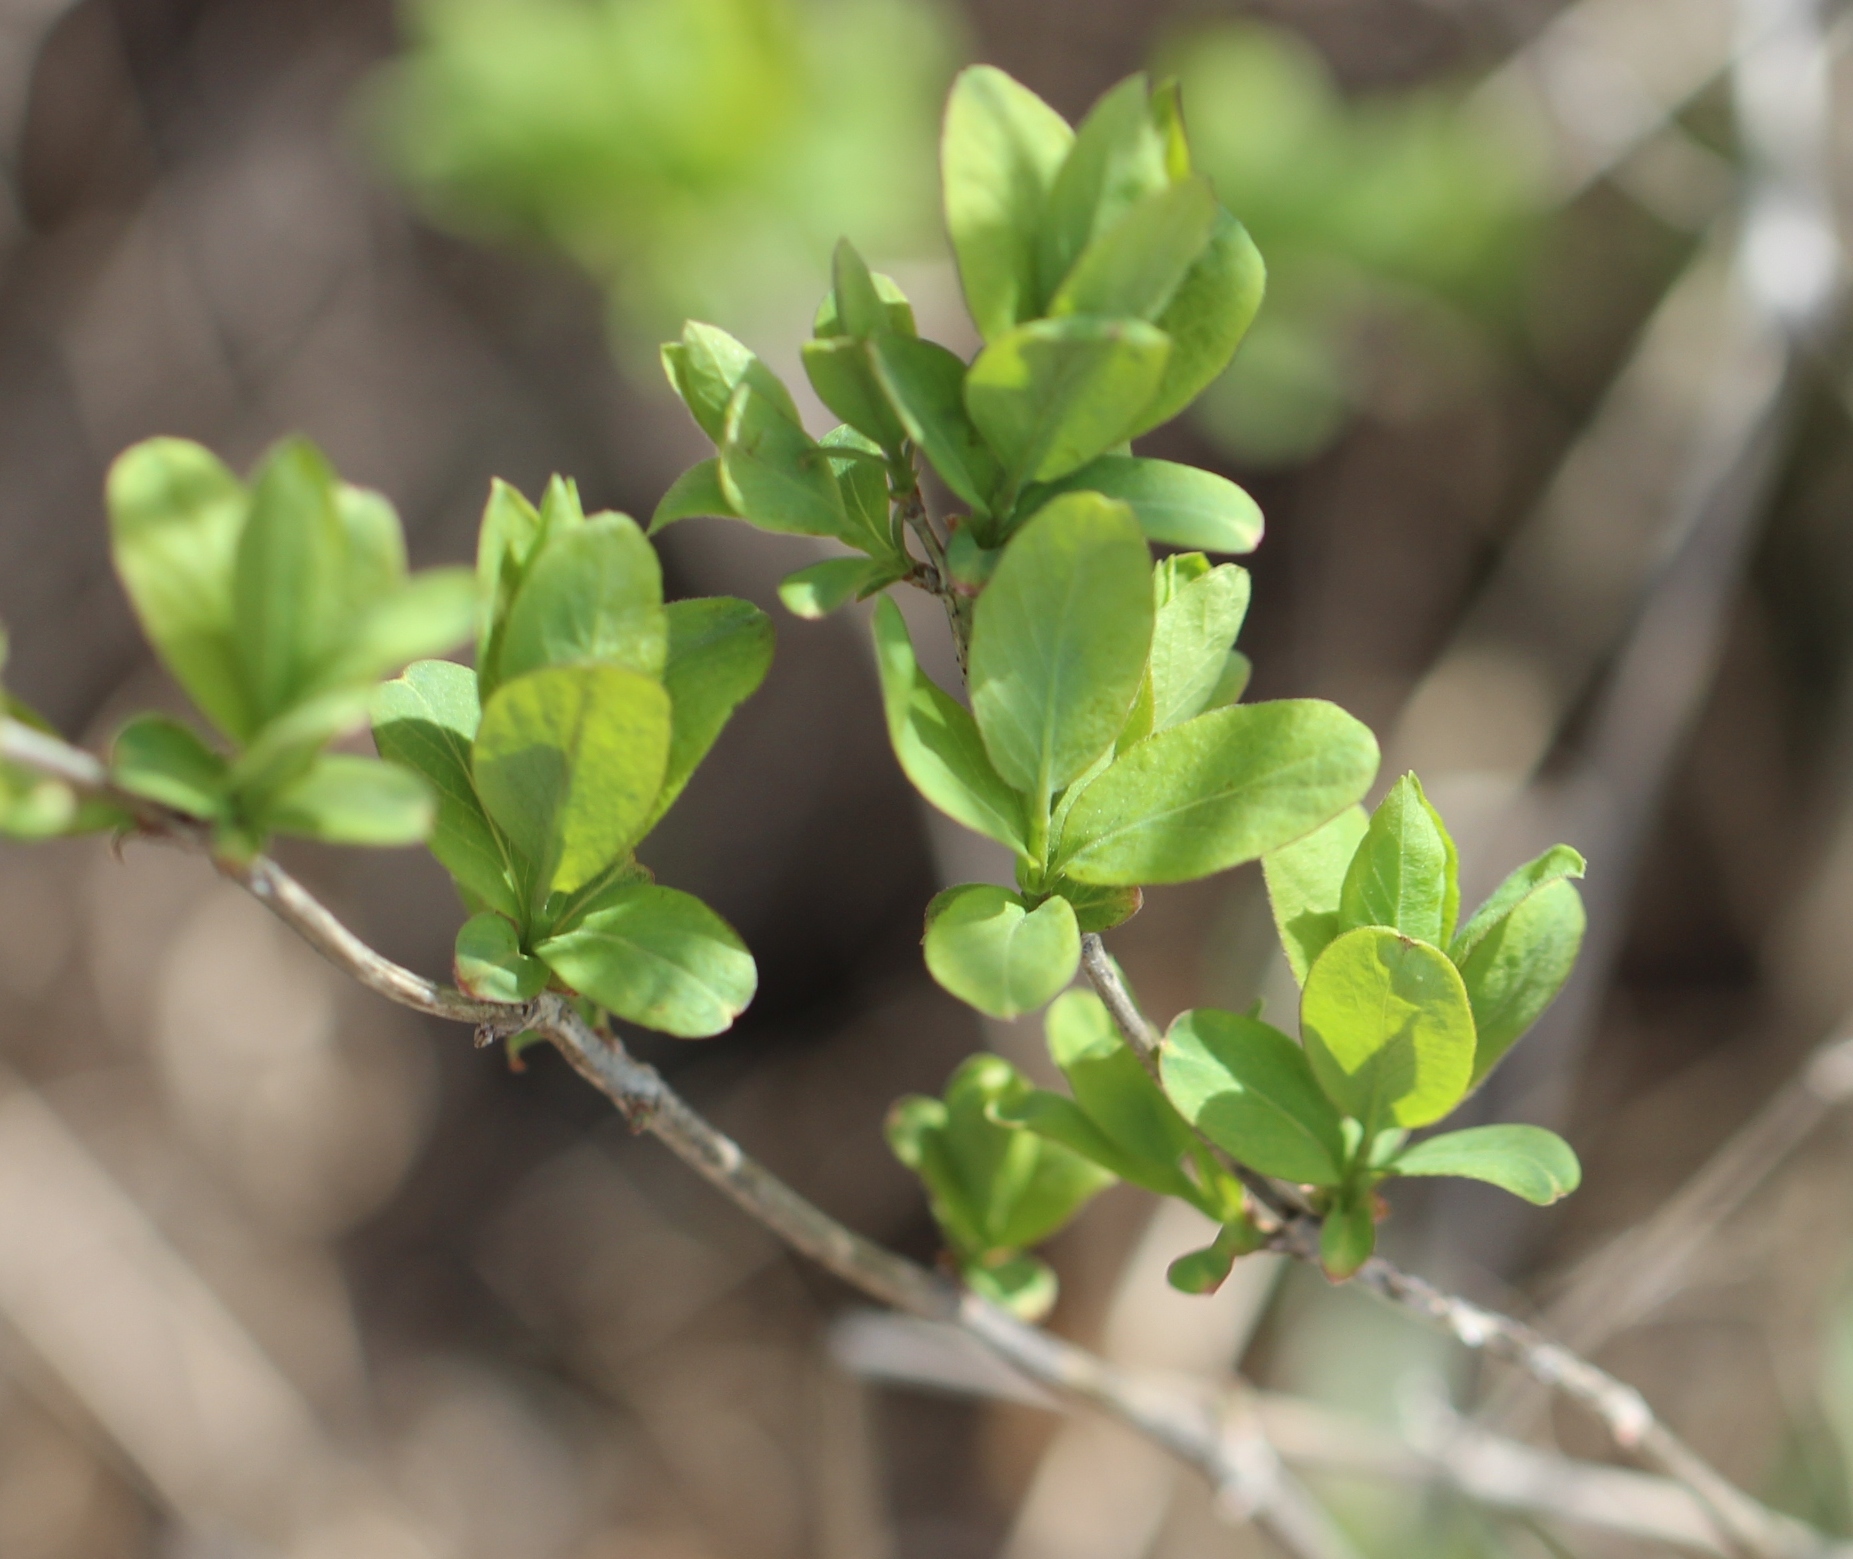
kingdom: Plantae
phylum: Tracheophyta
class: Magnoliopsida
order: Dipsacales
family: Caprifoliaceae
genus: Lonicera
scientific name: Lonicera tatarica
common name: Tatarian honeysuckle
